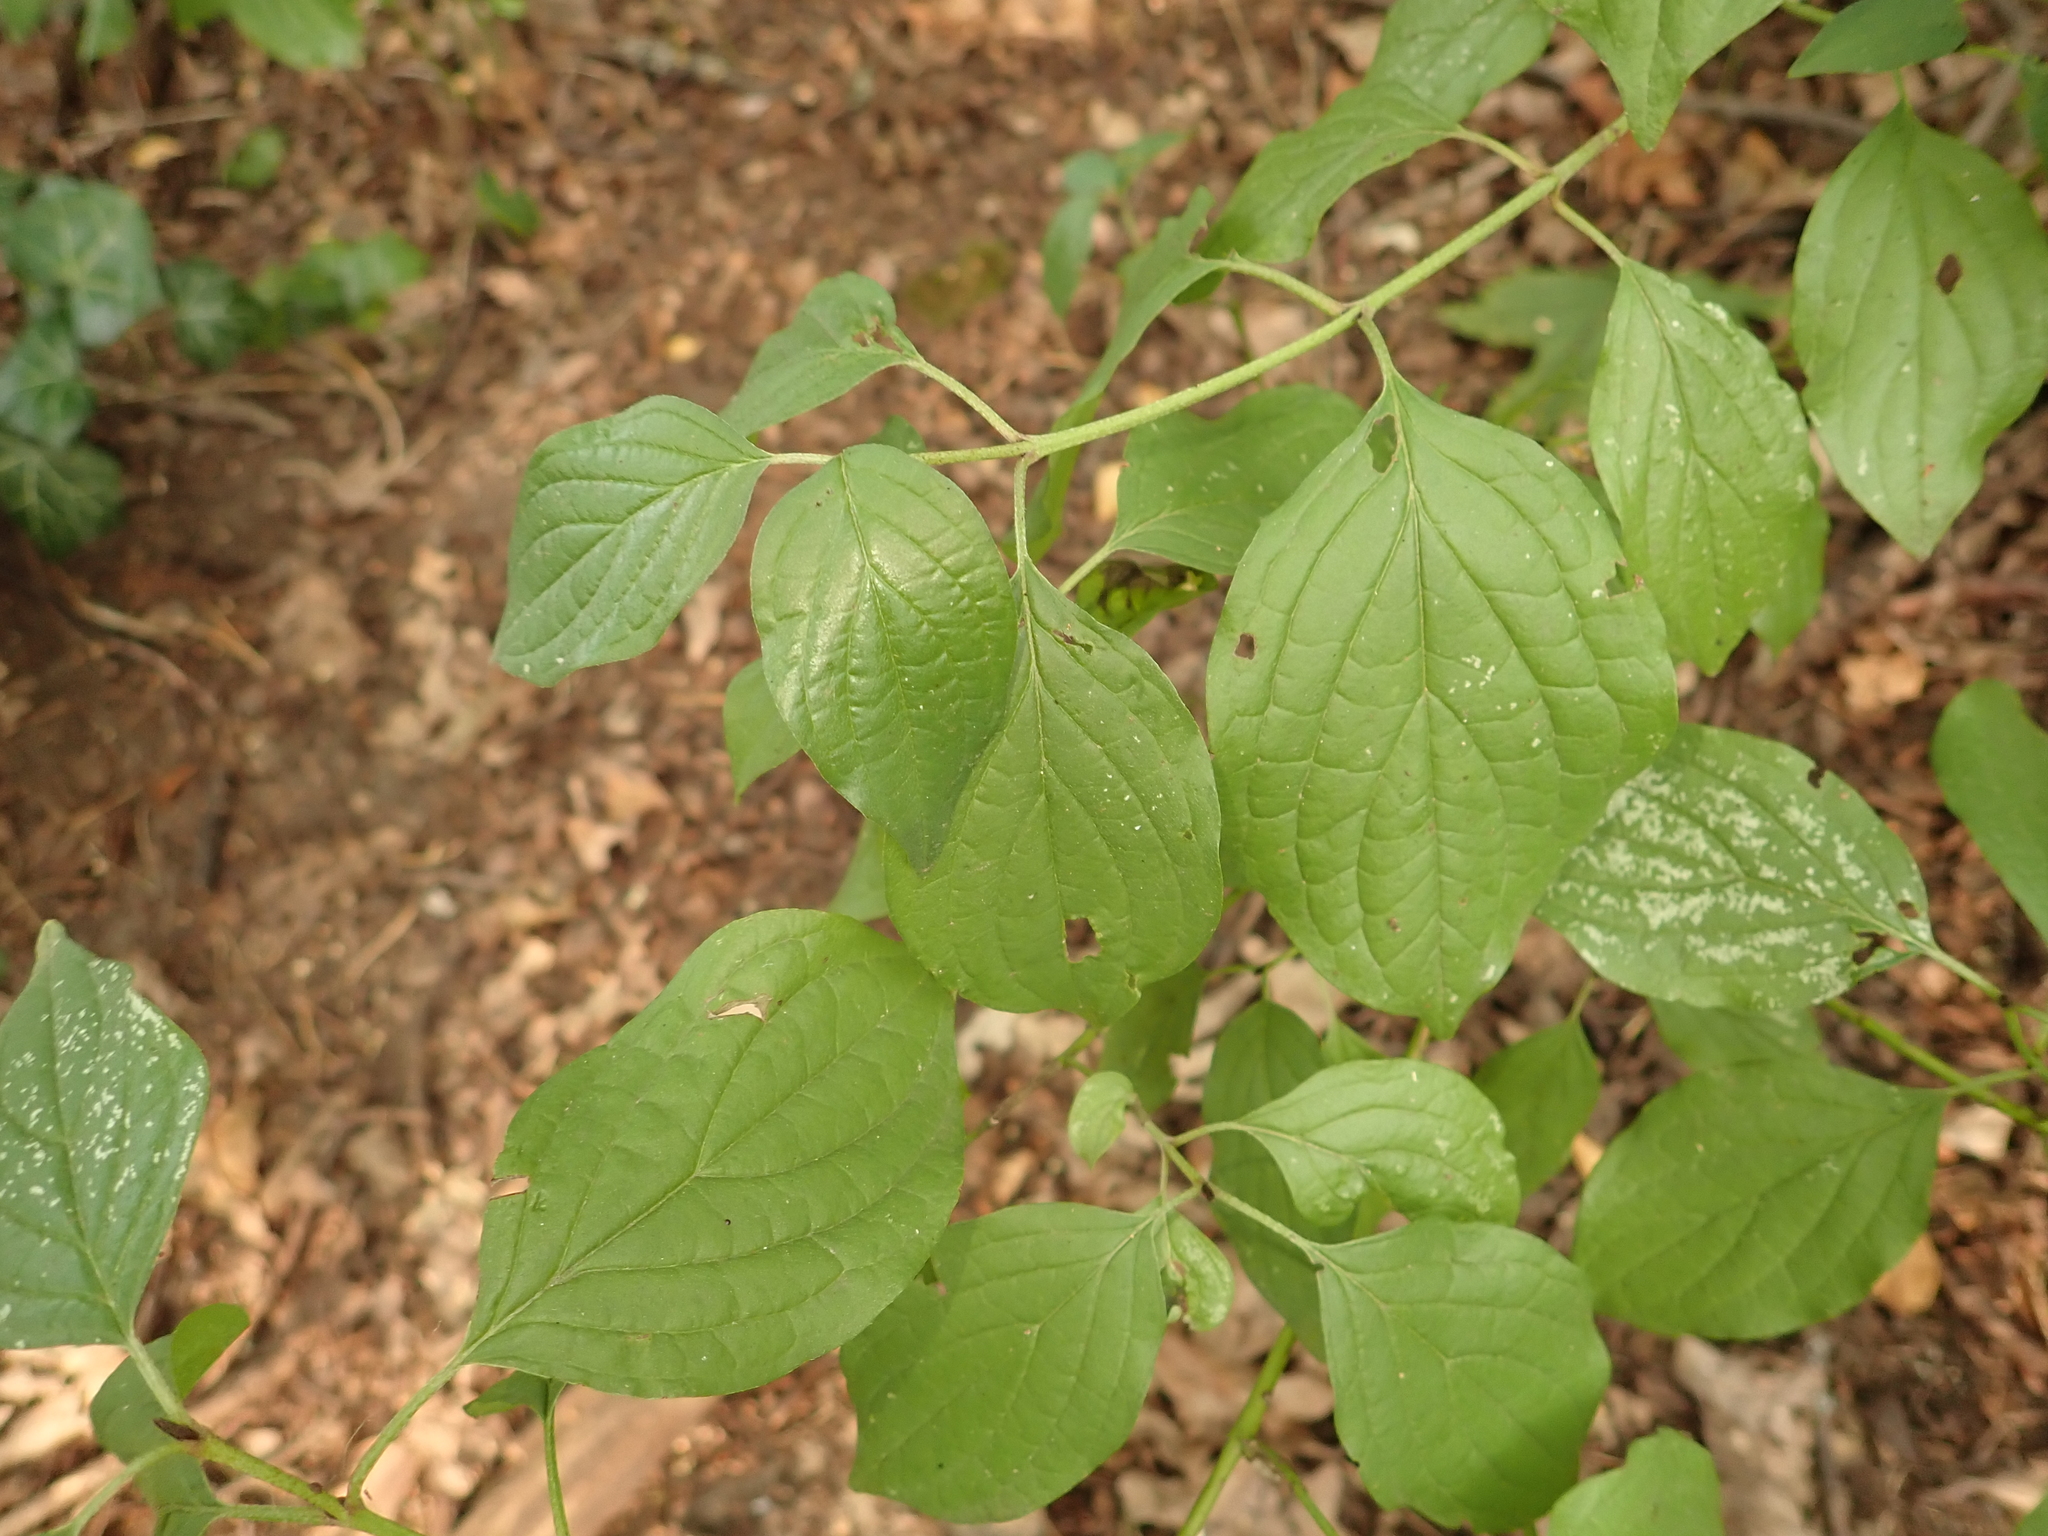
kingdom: Plantae
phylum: Tracheophyta
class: Magnoliopsida
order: Cornales
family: Cornaceae
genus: Cornus
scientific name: Cornus sanguinea
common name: Dogwood
